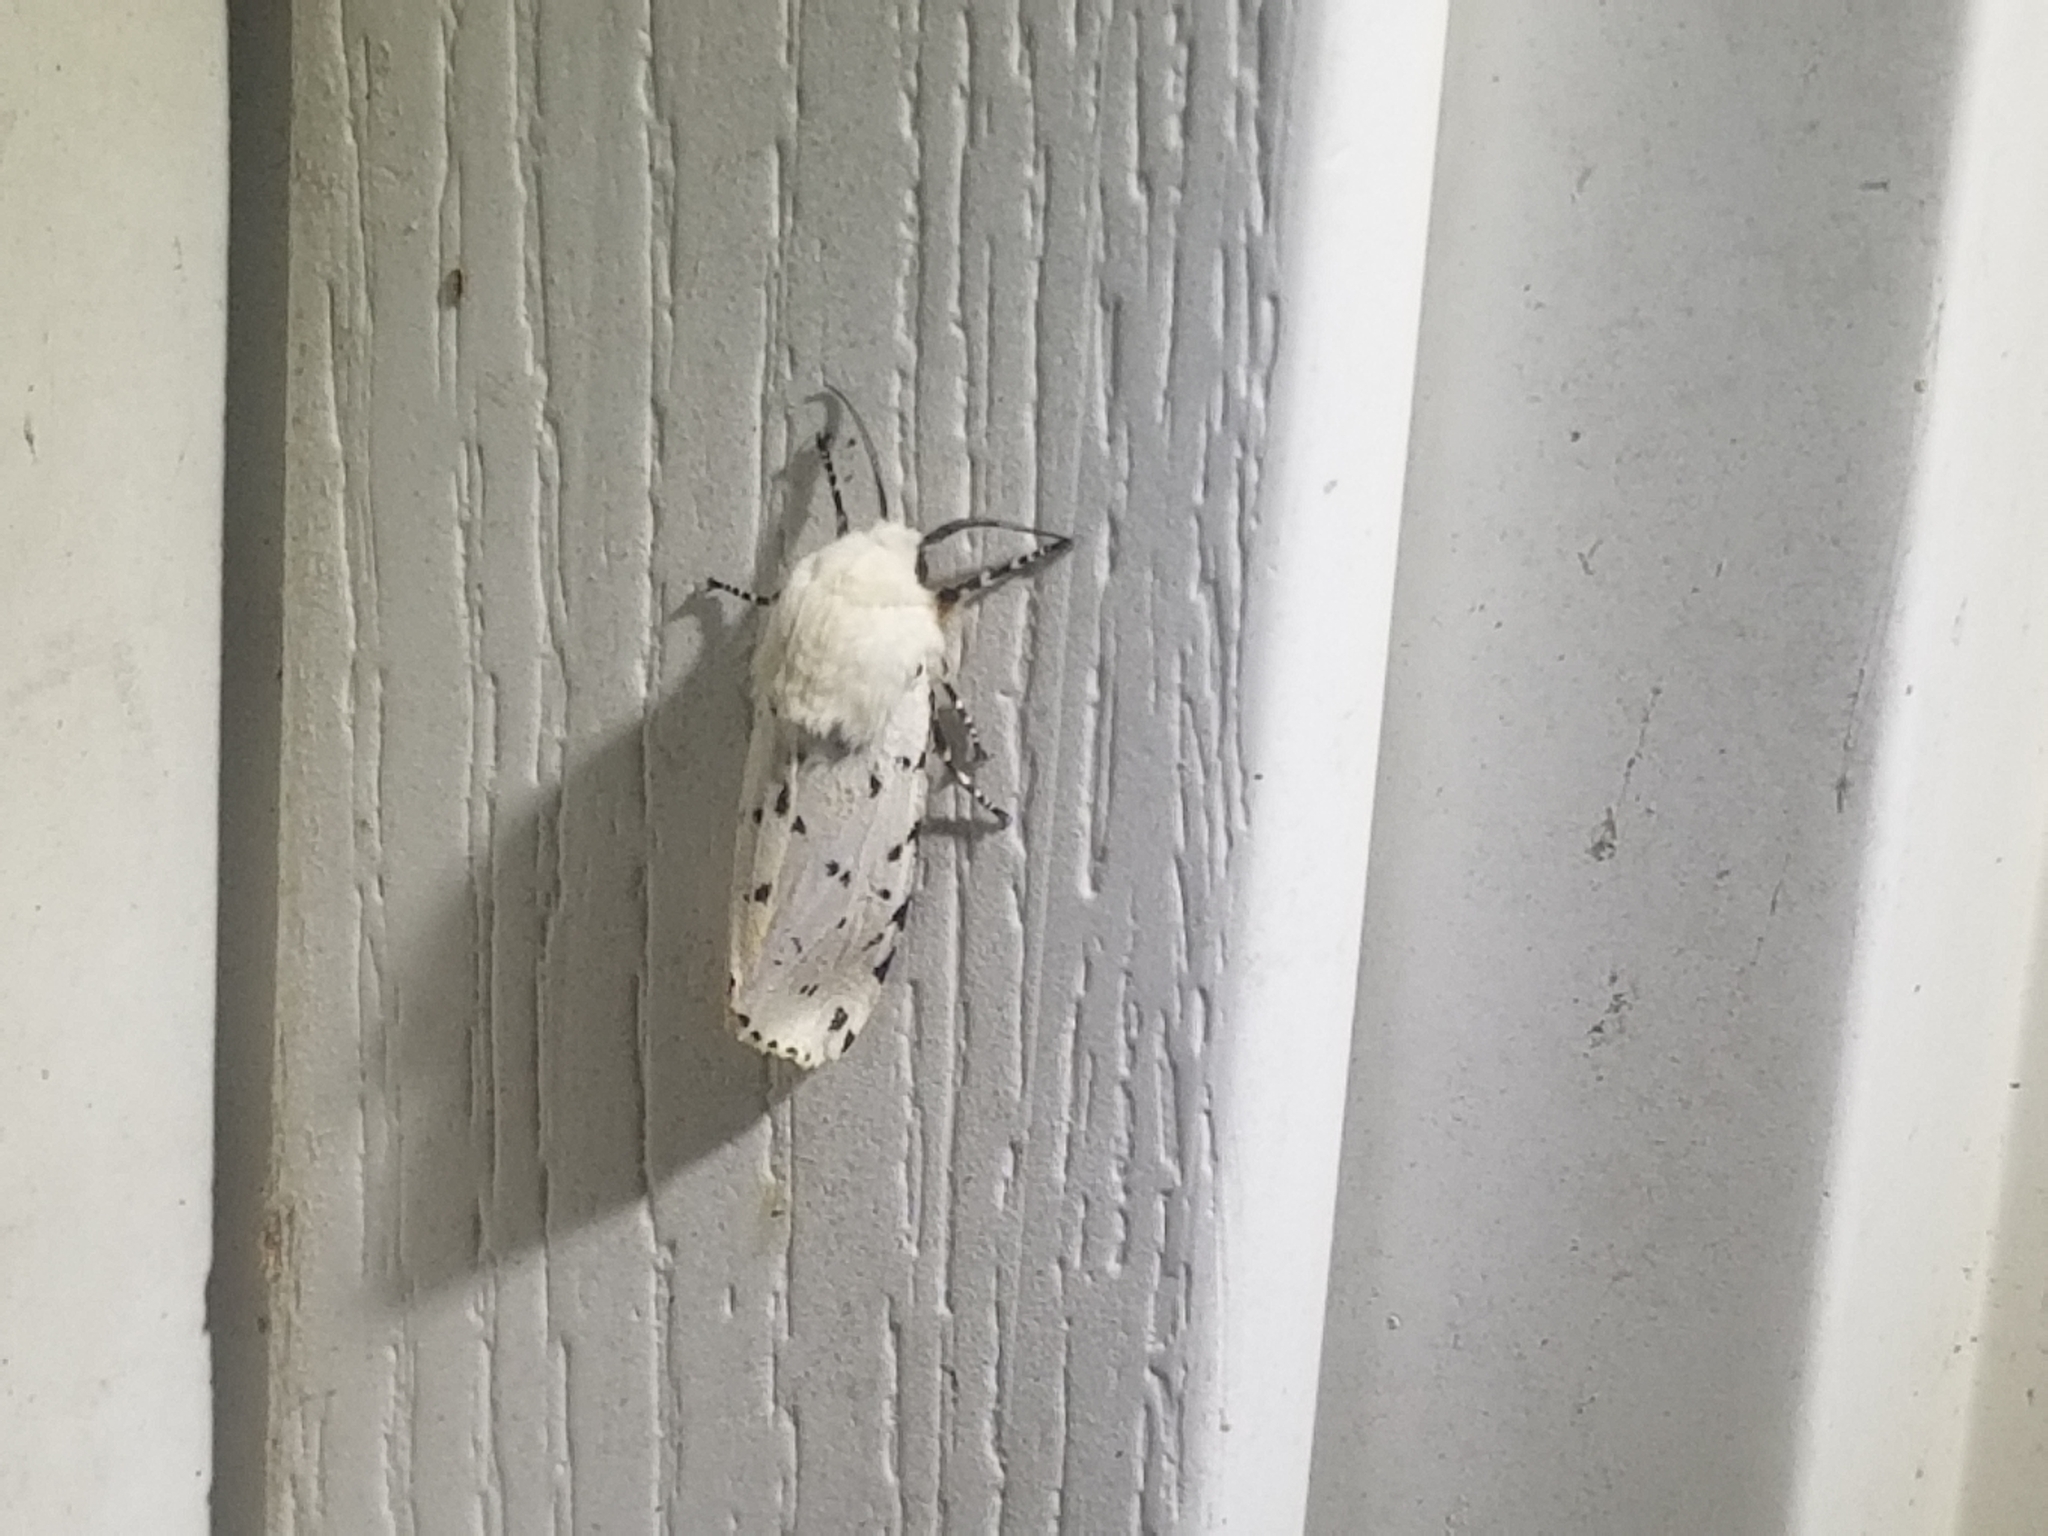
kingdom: Animalia
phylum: Arthropoda
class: Insecta
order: Lepidoptera
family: Erebidae
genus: Estigmene
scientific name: Estigmene acrea
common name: Salt marsh moth
